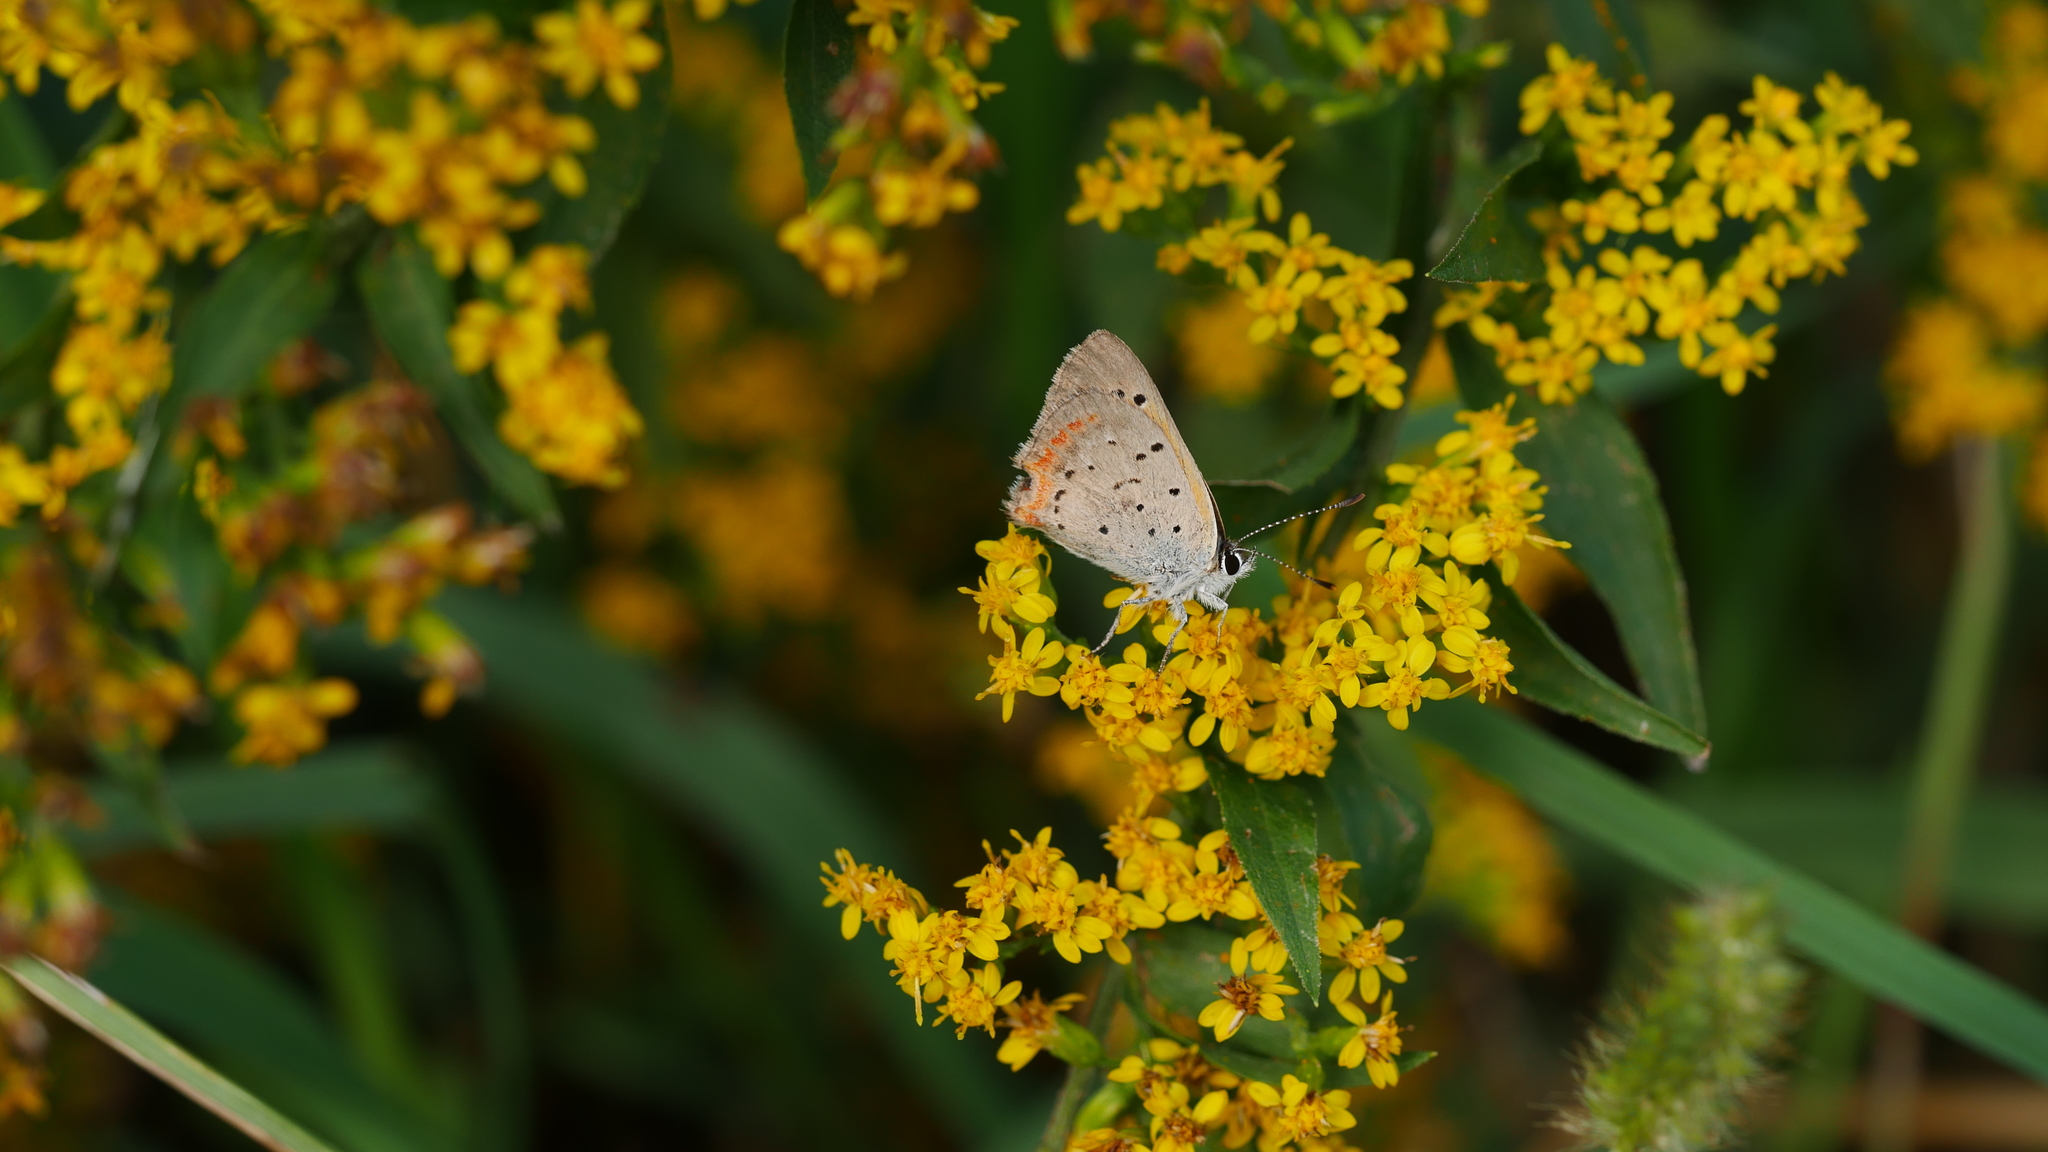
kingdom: Animalia
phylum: Arthropoda
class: Insecta
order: Lepidoptera
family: Lycaenidae
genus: Lycaena
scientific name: Lycaena hypophlaeas
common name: American copper
